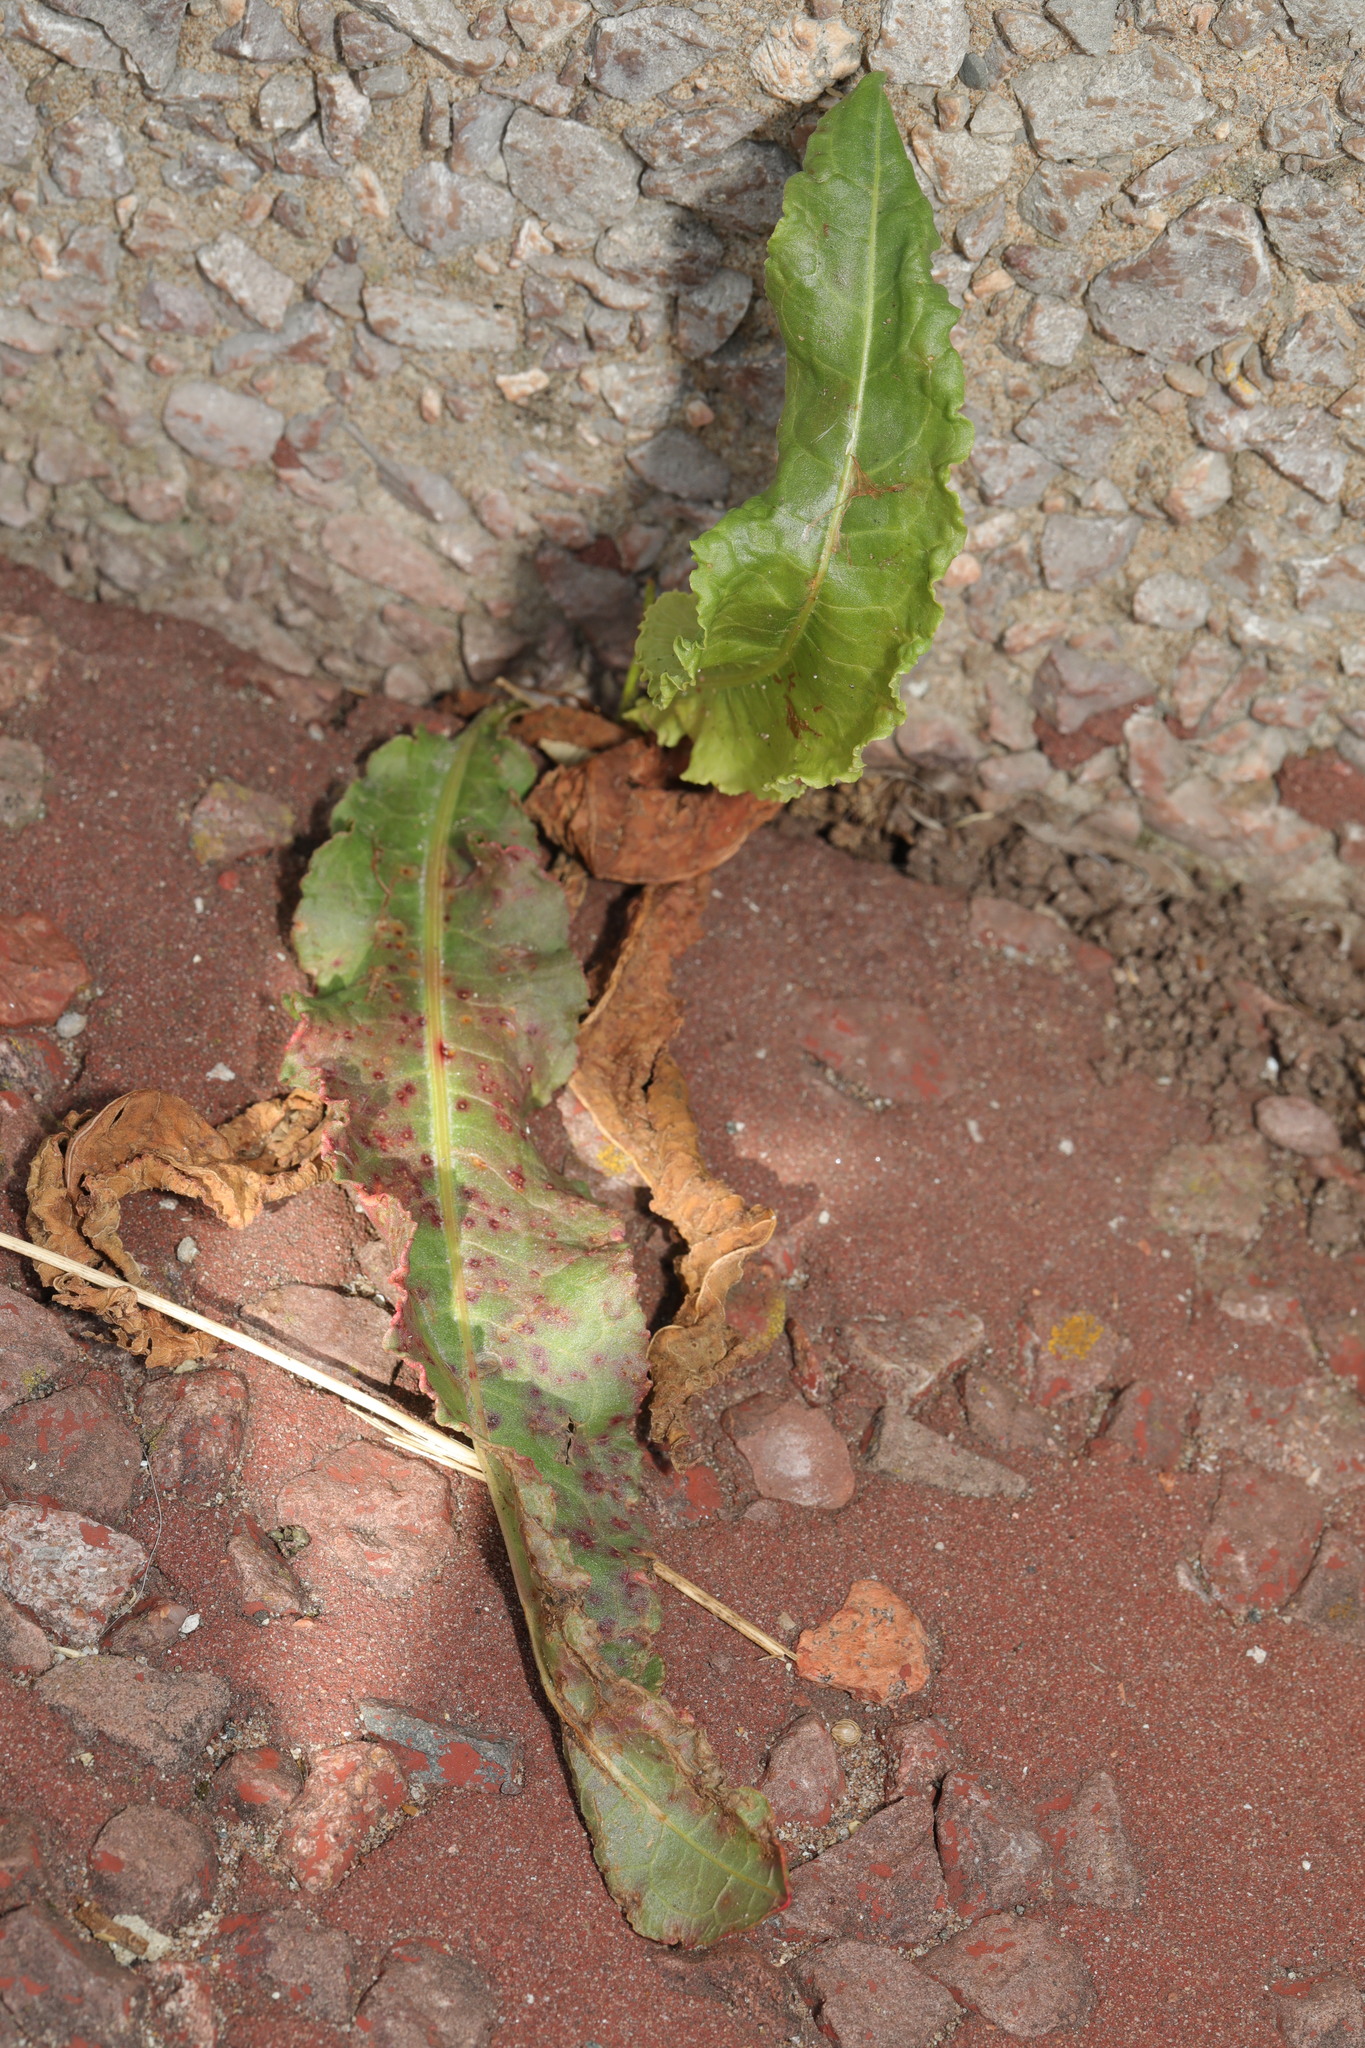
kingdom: Plantae
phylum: Tracheophyta
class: Magnoliopsida
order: Caryophyllales
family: Polygonaceae
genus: Rumex
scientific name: Rumex crispus
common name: Curled dock
